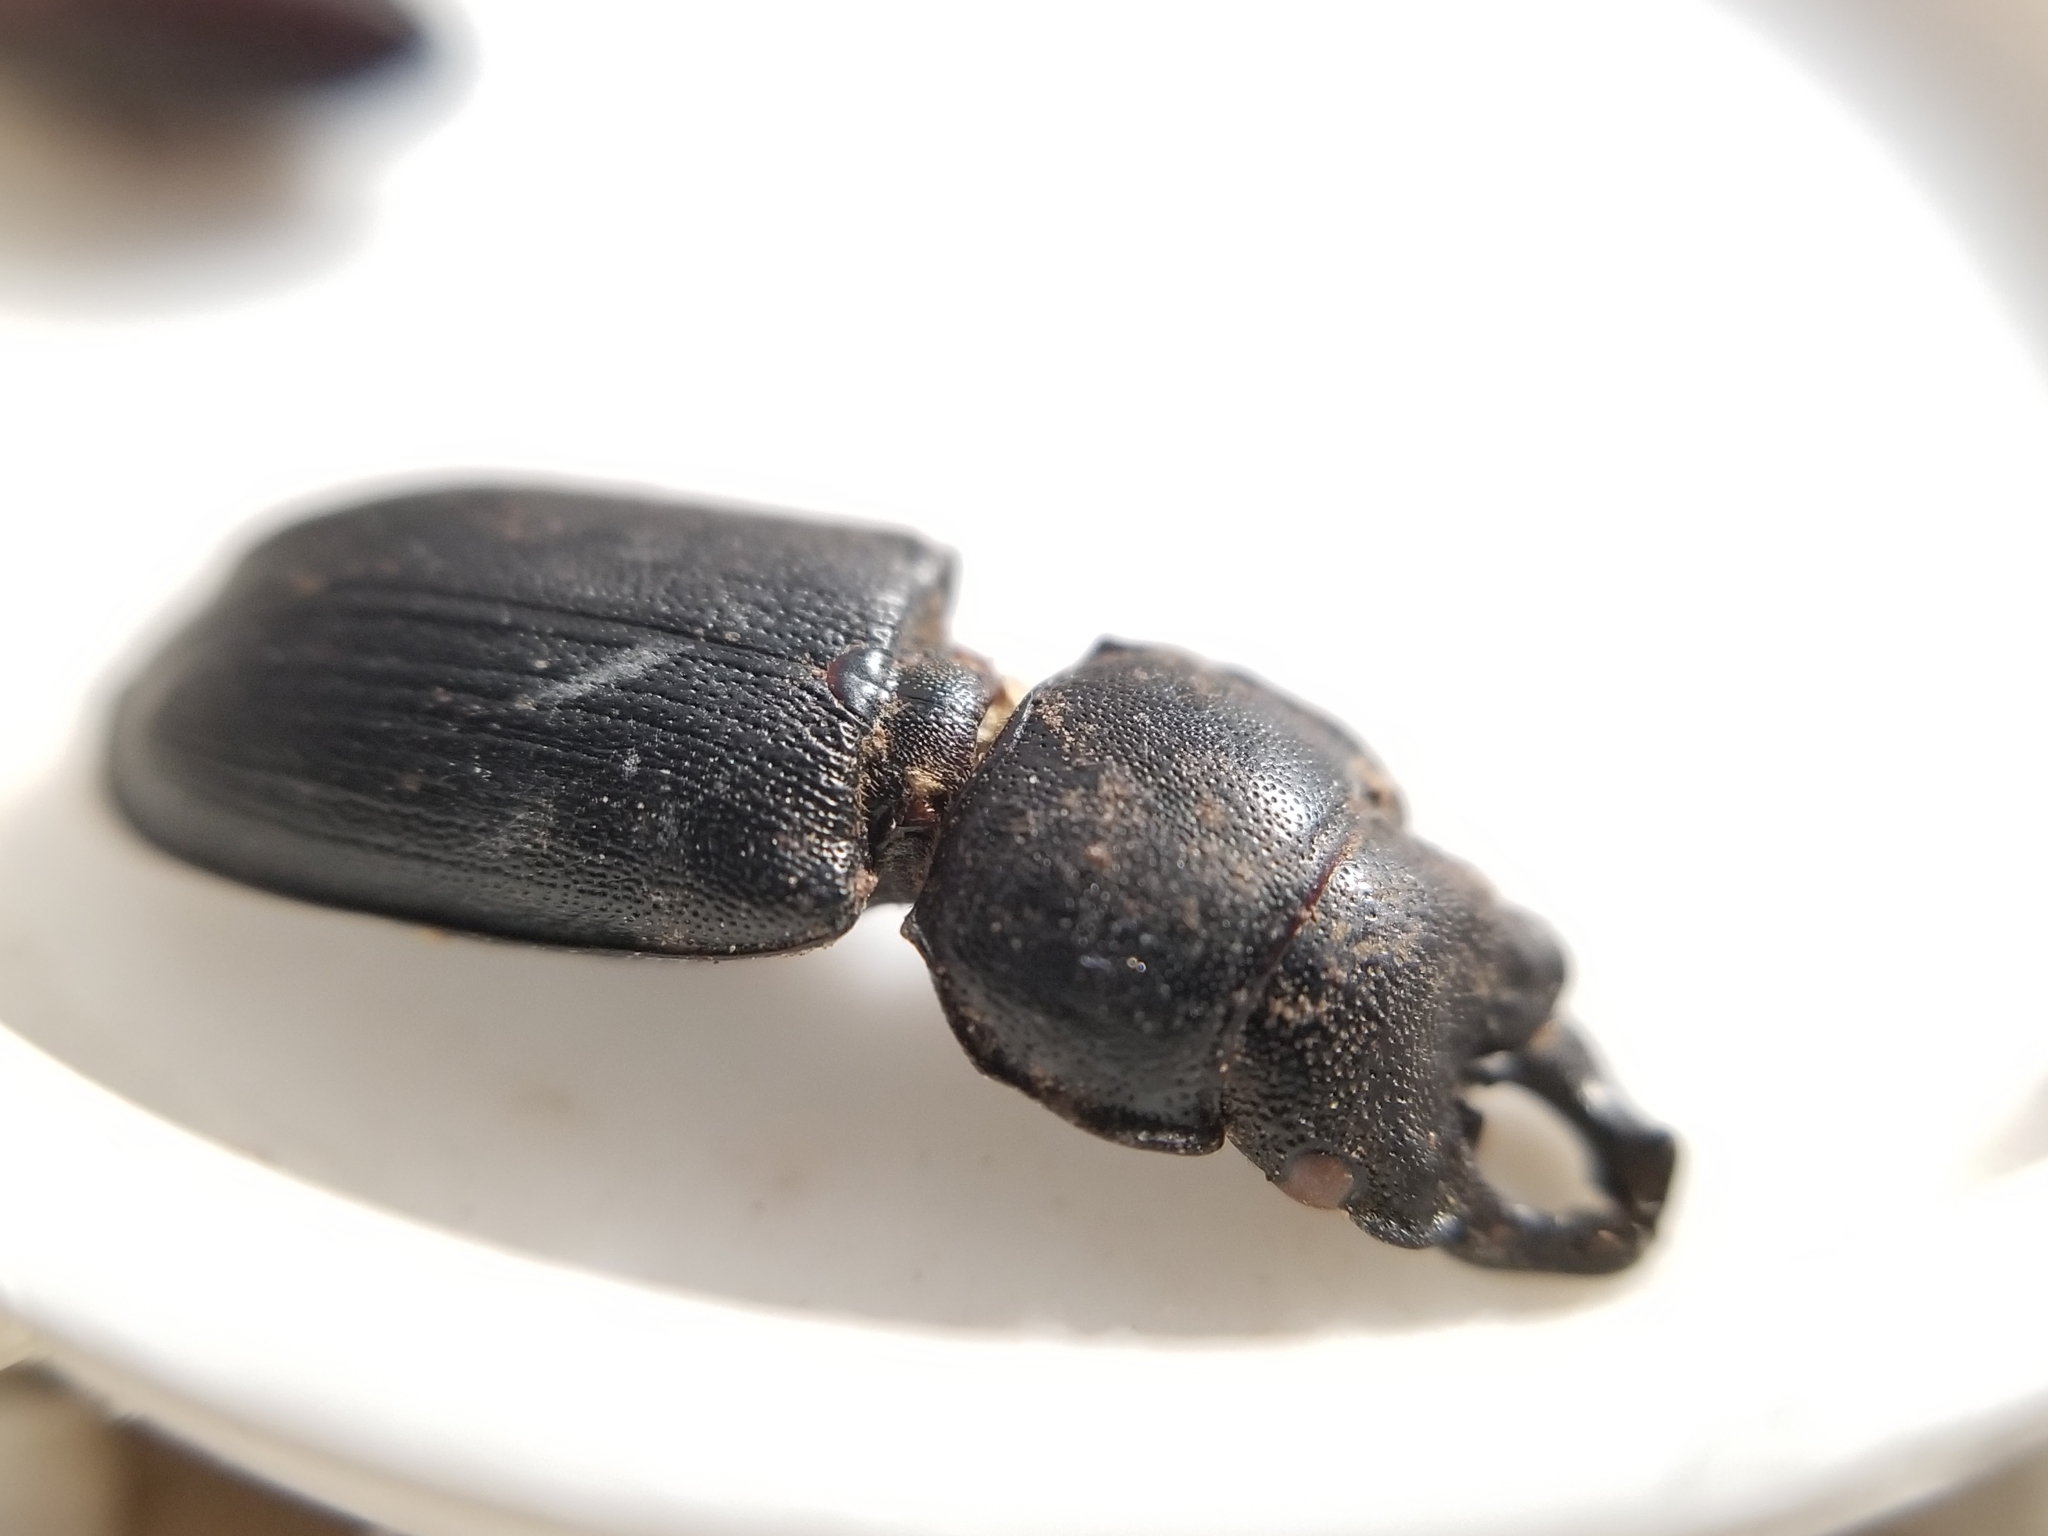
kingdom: Animalia
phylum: Arthropoda
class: Insecta
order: Coleoptera
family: Lucanidae
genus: Platycerus
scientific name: Platycerus marginalis
